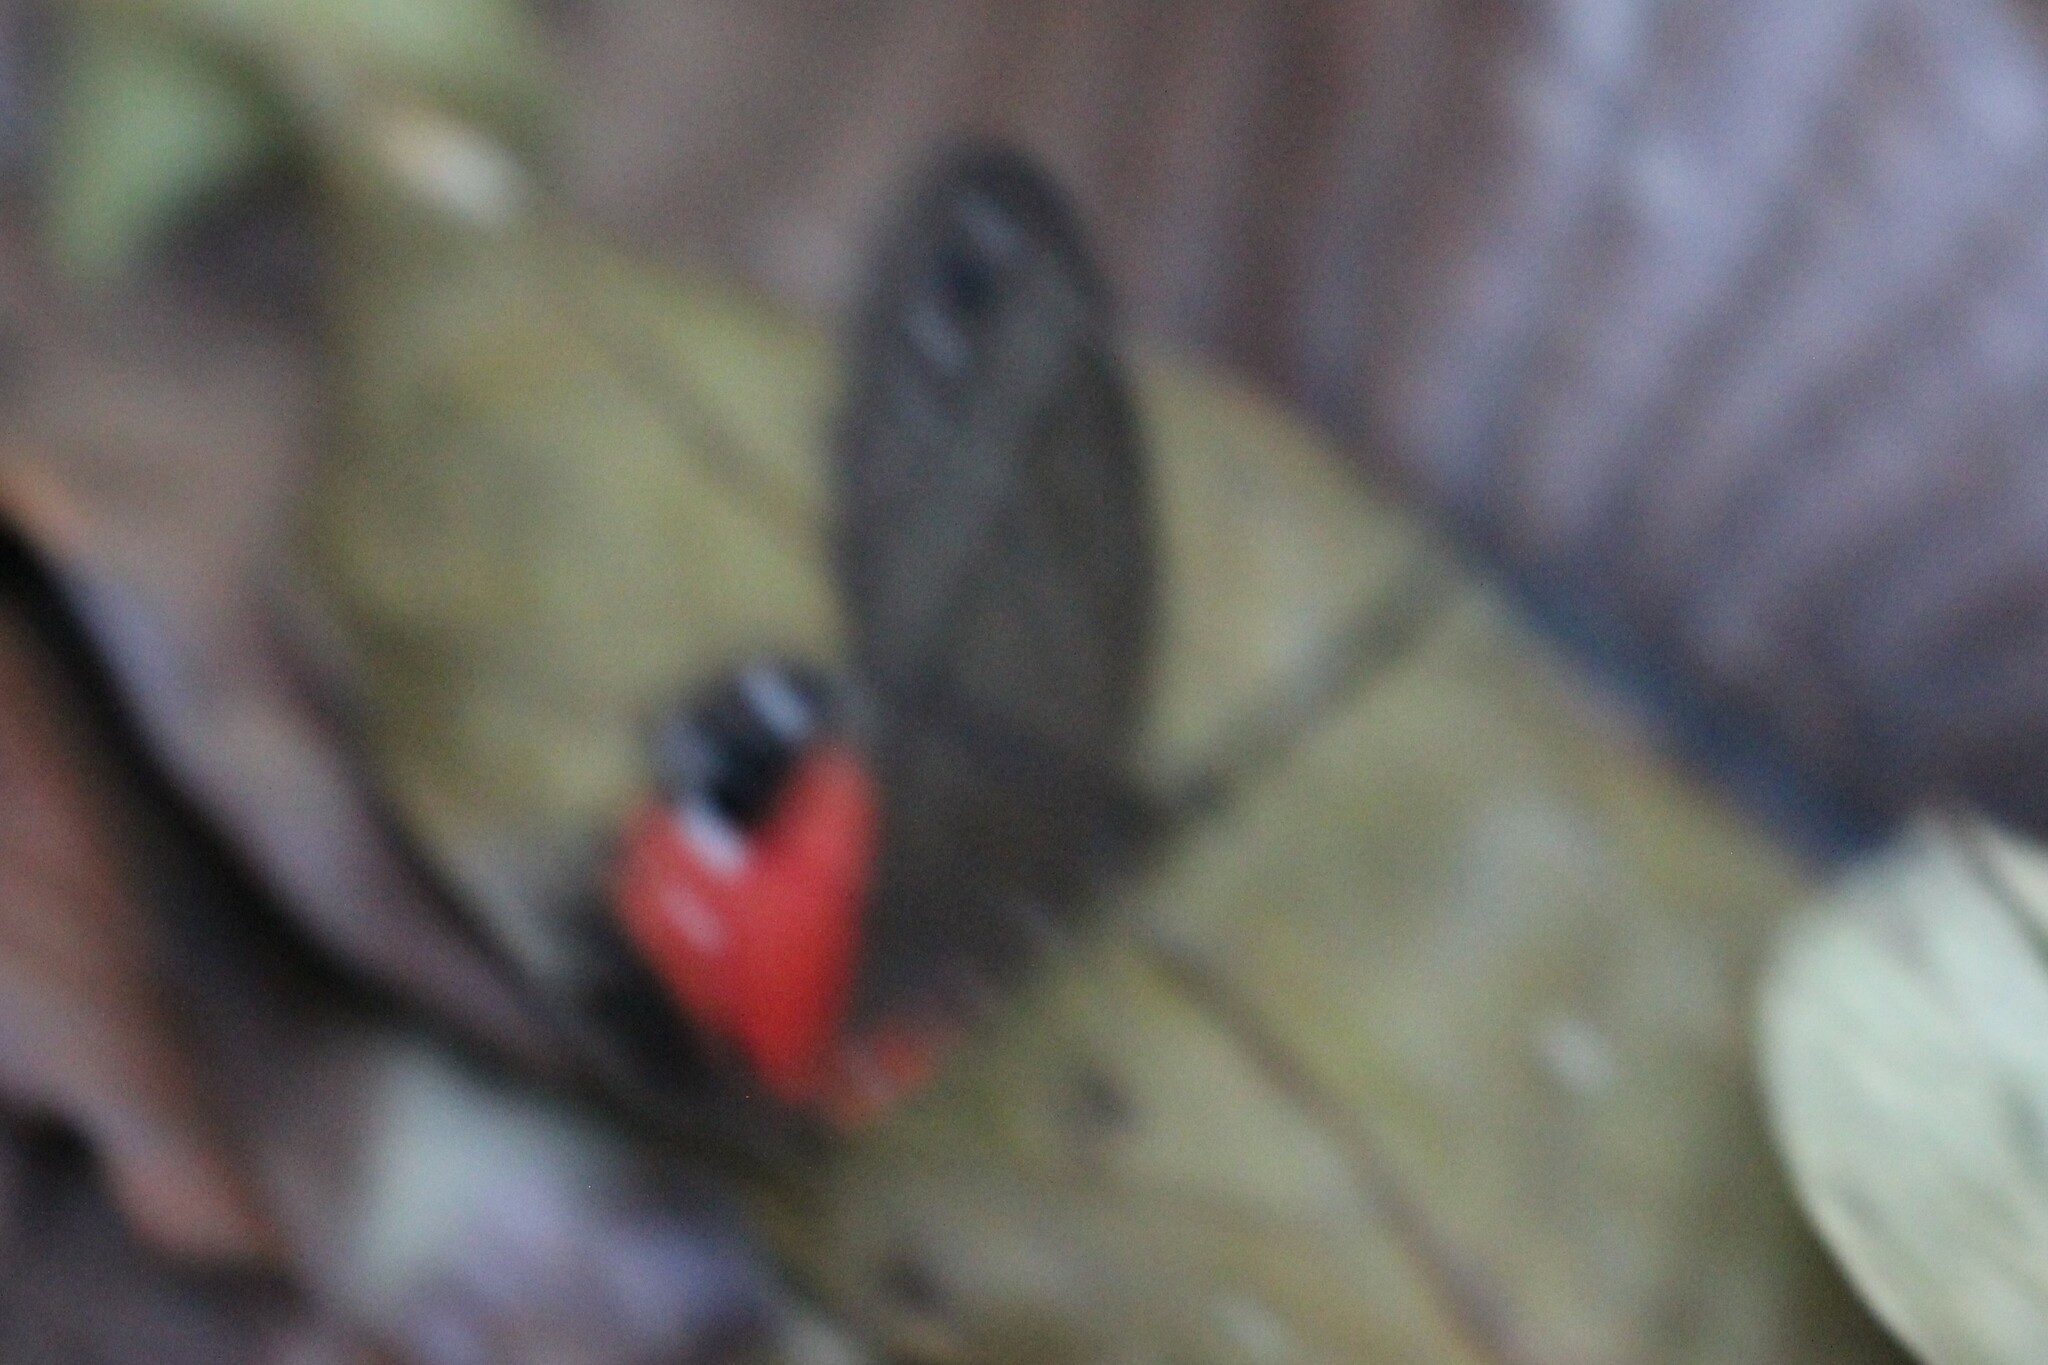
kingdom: Animalia
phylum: Arthropoda
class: Insecta
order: Lepidoptera
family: Nymphalidae
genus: Pierella
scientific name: Pierella helvina
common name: Red-washed satyr
